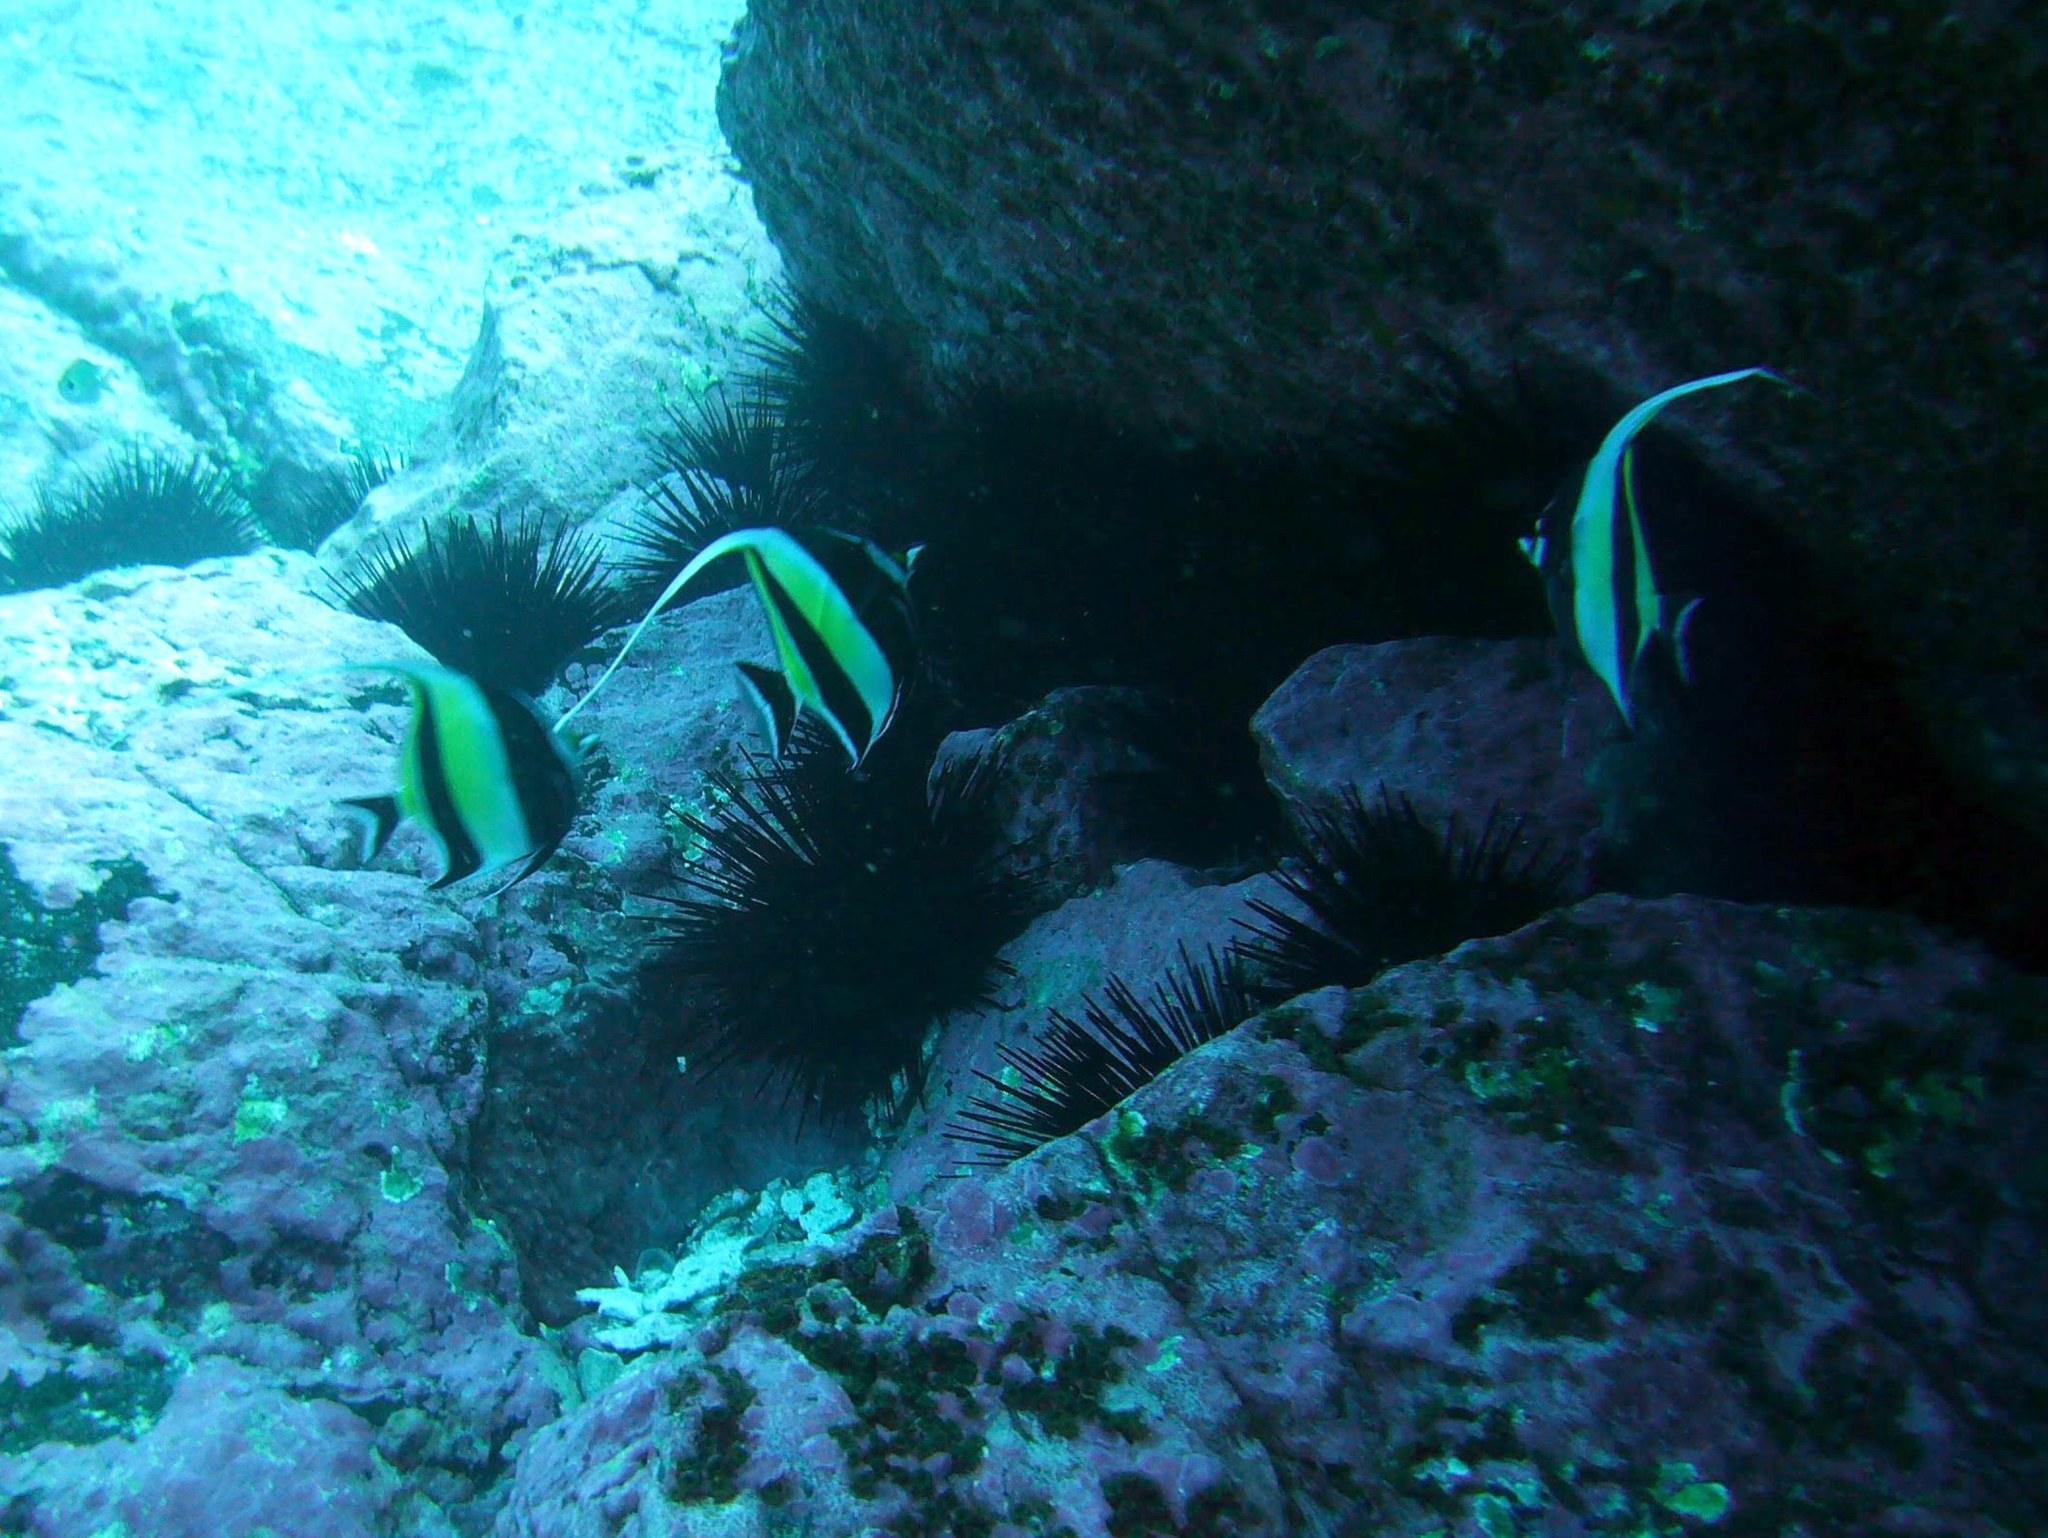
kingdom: Animalia
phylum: Chordata
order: Perciformes
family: Zanclidae
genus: Zanclus
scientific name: Zanclus cornutus
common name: Moorish idol
